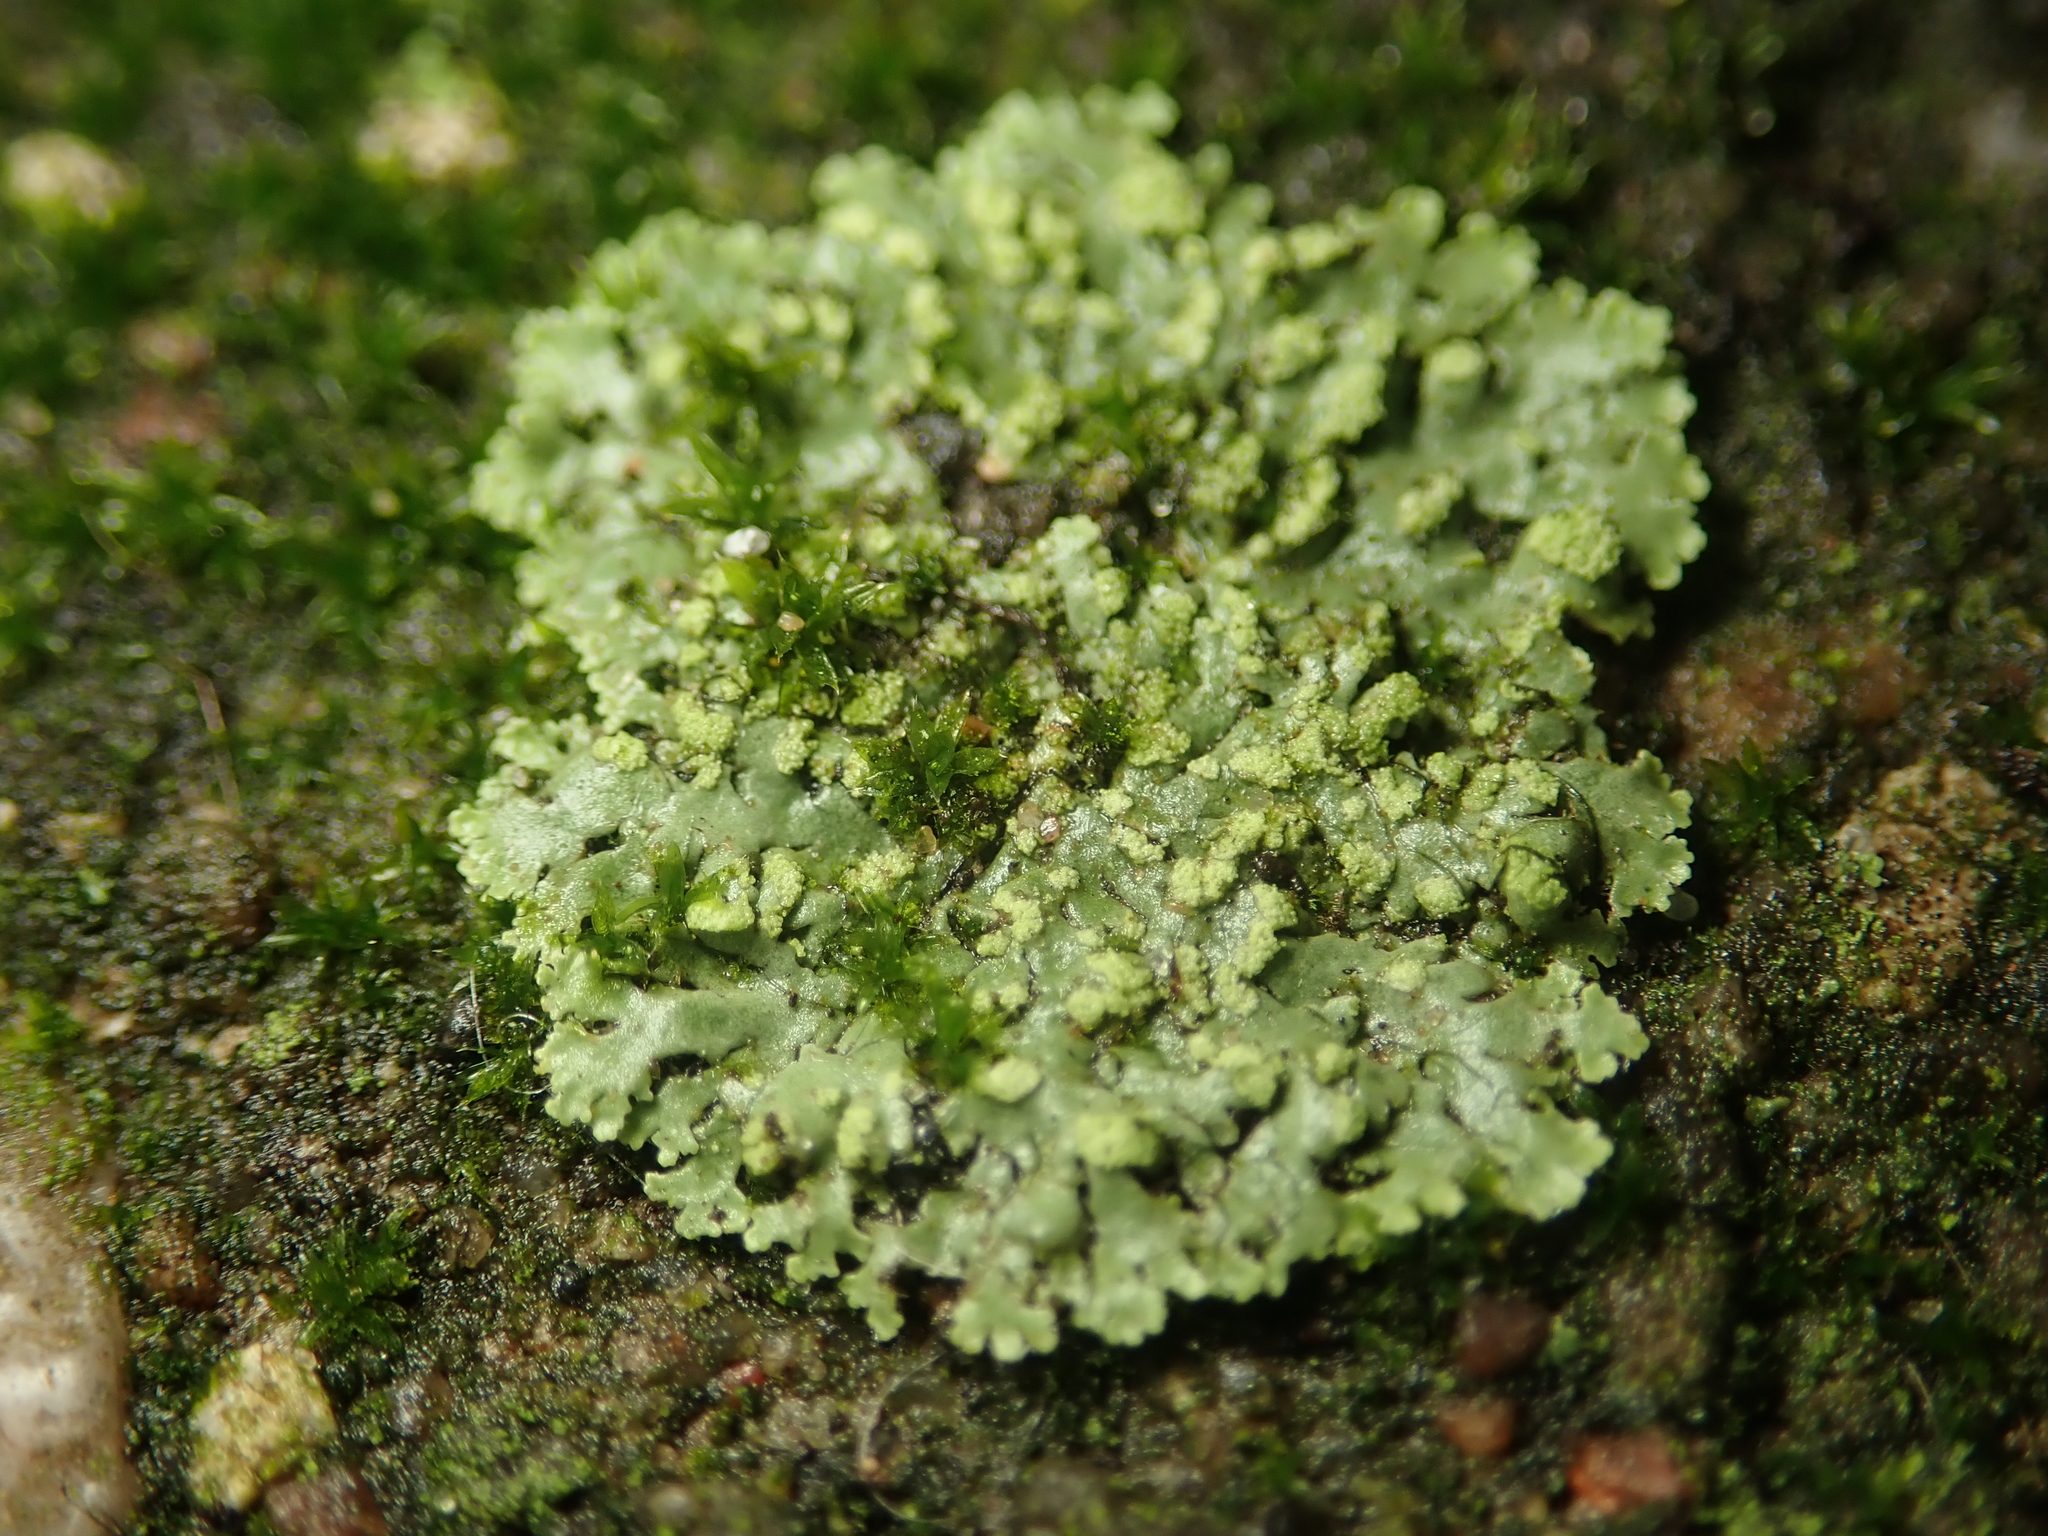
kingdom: Fungi
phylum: Ascomycota
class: Lecanoromycetes
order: Caliciales
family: Physciaceae
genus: Phaeophyscia
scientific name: Phaeophyscia orbicularis
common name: Mealy shadow lichen
